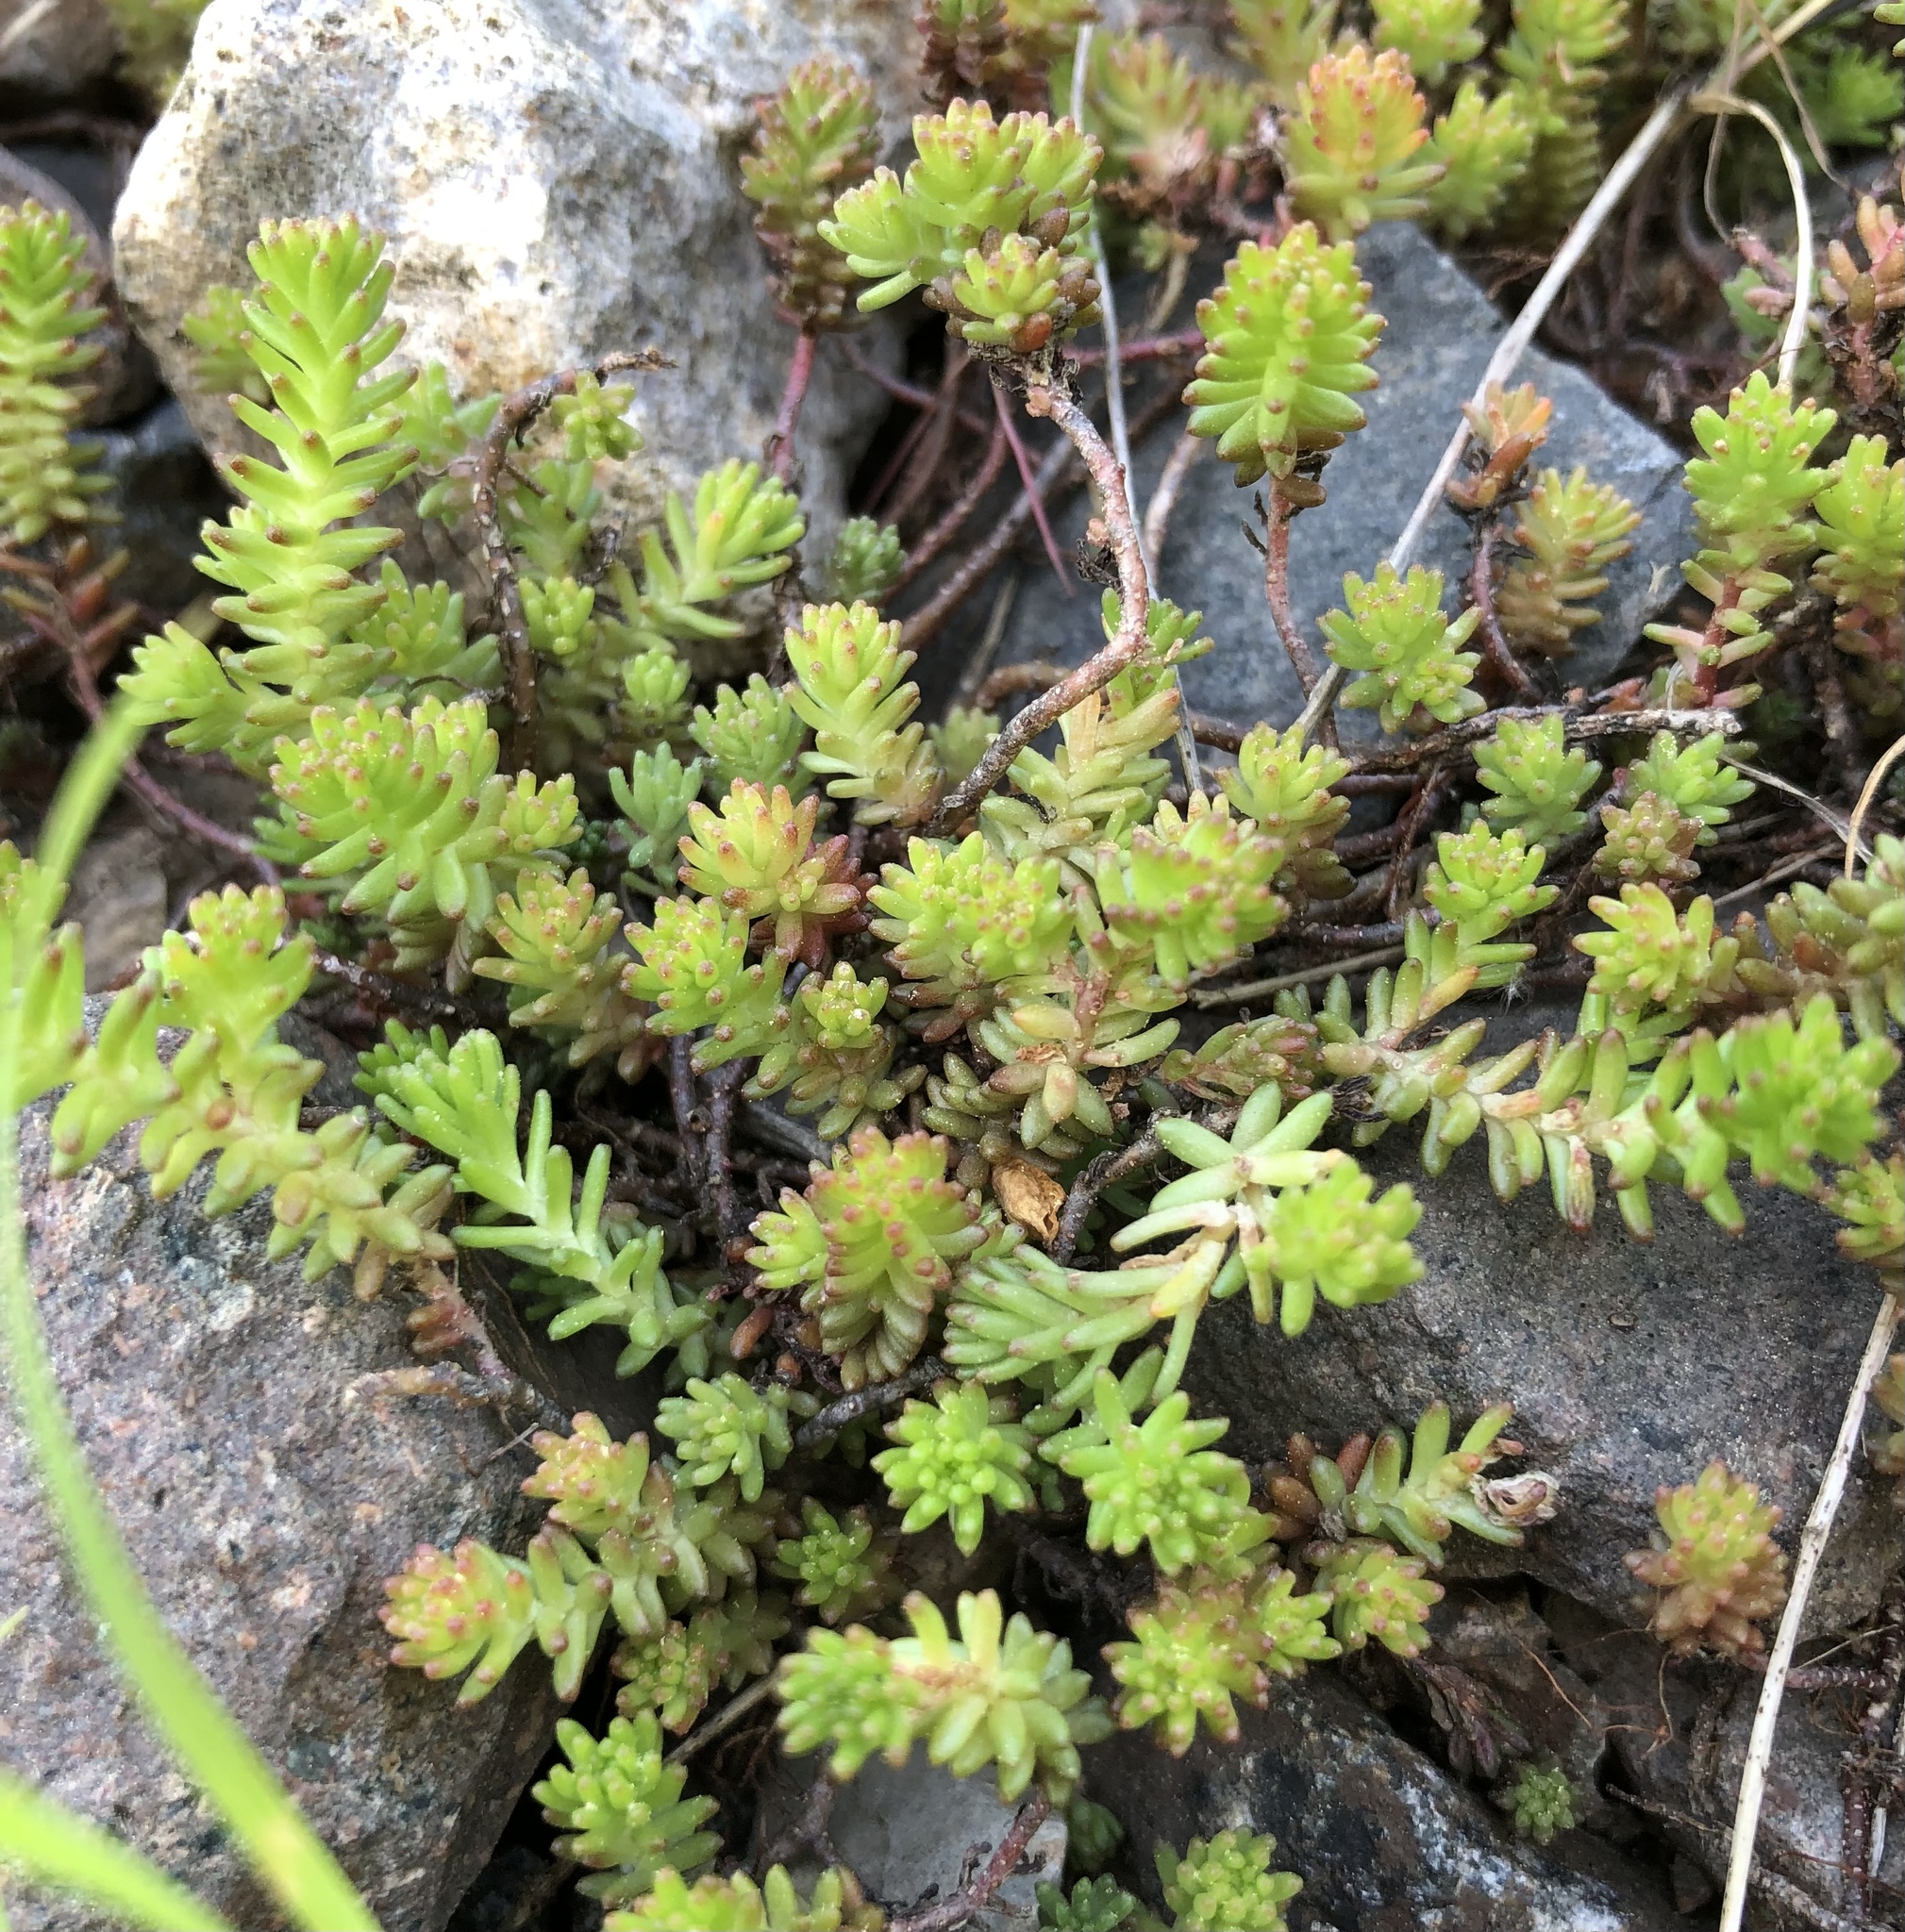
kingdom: Plantae
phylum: Tracheophyta
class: Magnoliopsida
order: Saxifragales
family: Crassulaceae
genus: Sedum
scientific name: Sedum sexangulare
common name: Tasteless stonecrop
